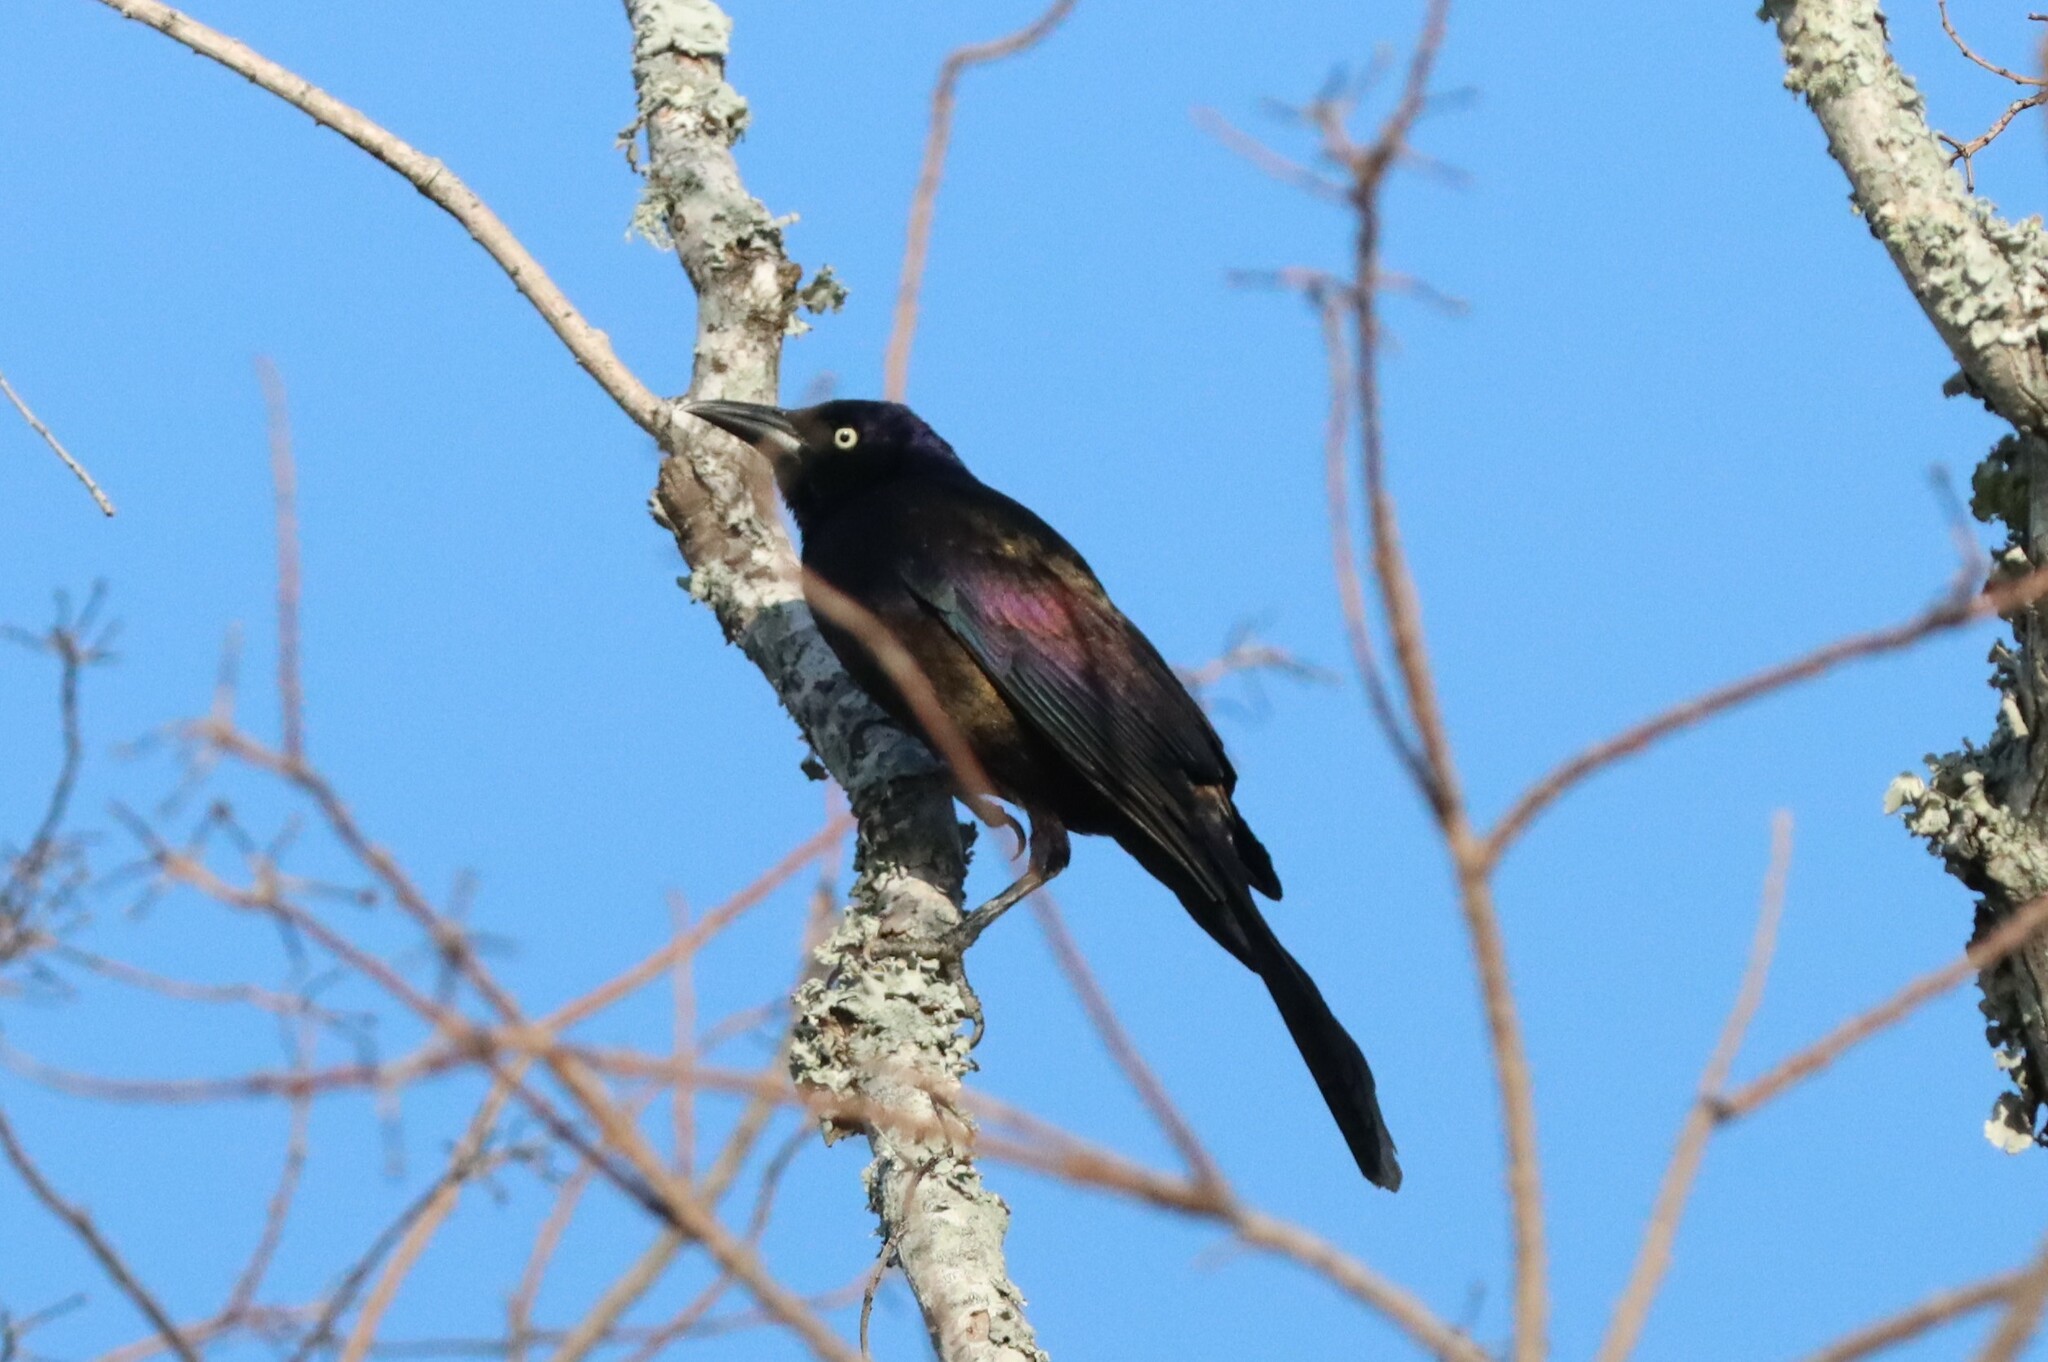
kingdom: Animalia
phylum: Chordata
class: Aves
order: Passeriformes
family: Icteridae
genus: Quiscalus
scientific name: Quiscalus quiscula
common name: Common grackle
